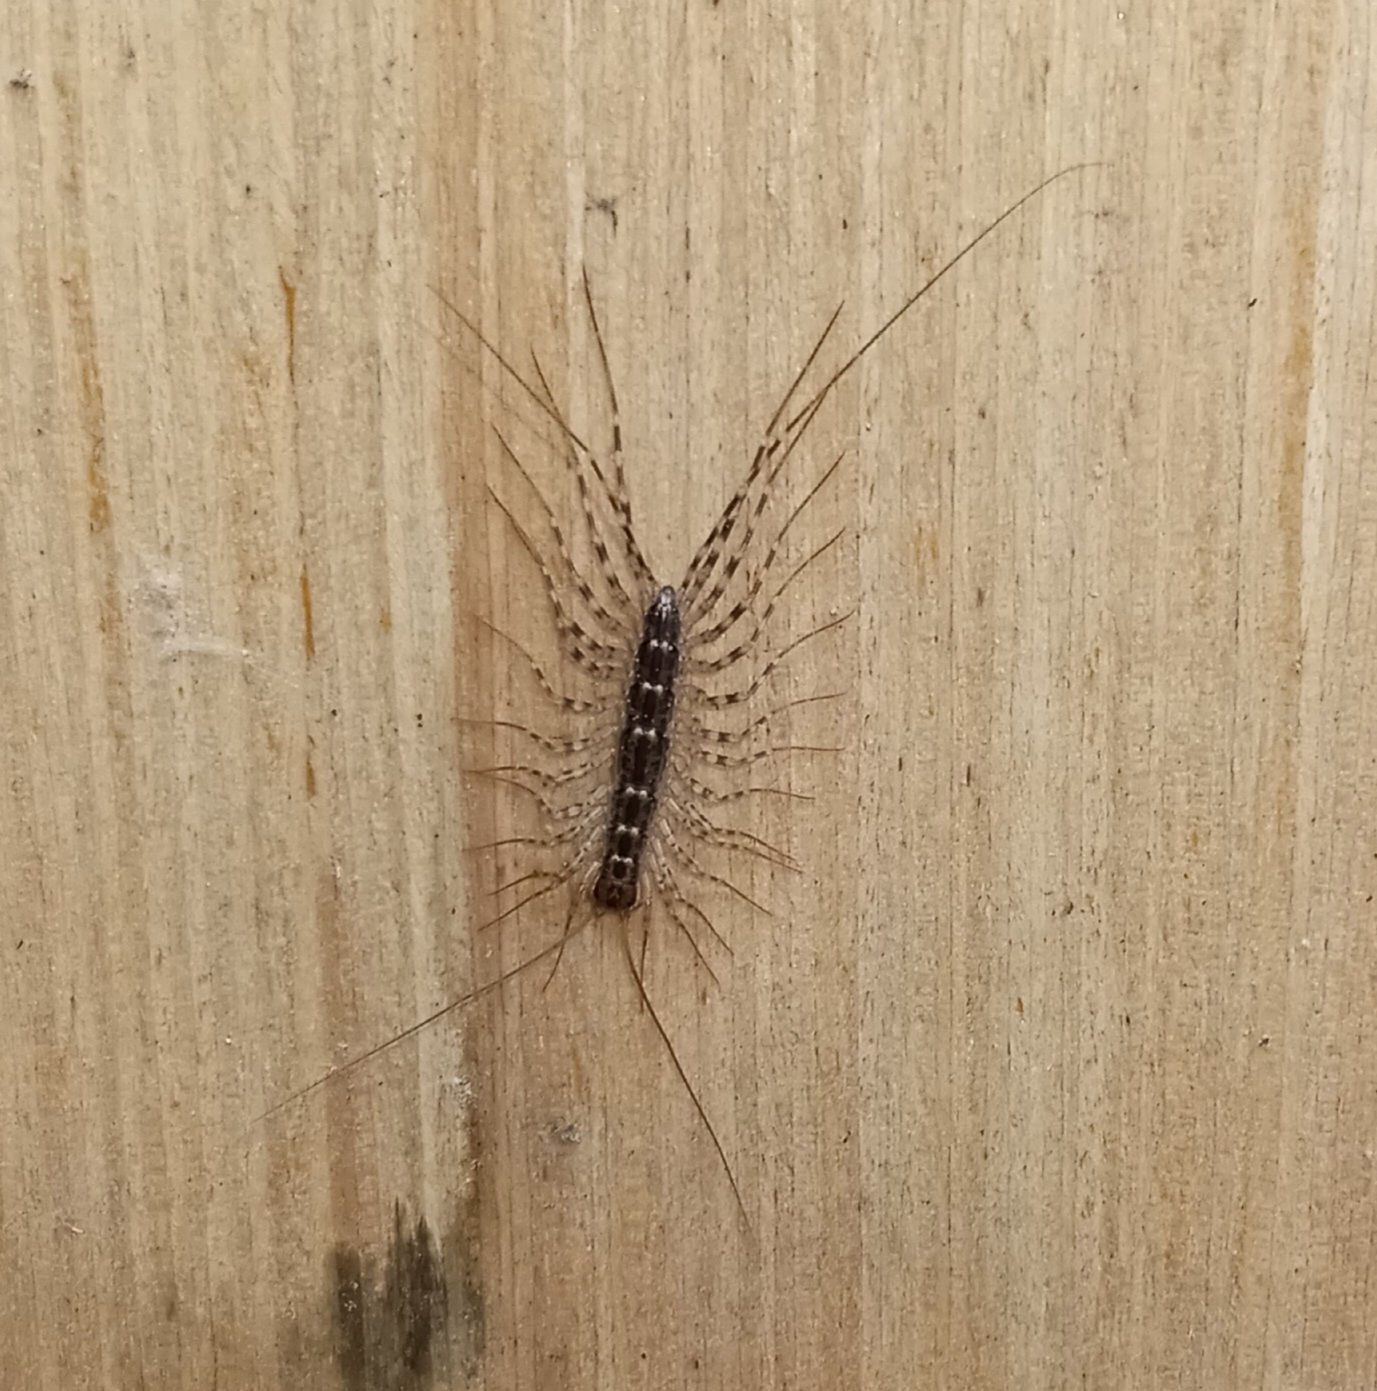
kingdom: Animalia
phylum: Arthropoda
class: Chilopoda
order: Scutigeromorpha
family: Scutigeridae
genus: Thereuonema
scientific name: Thereuonema tuberculata
